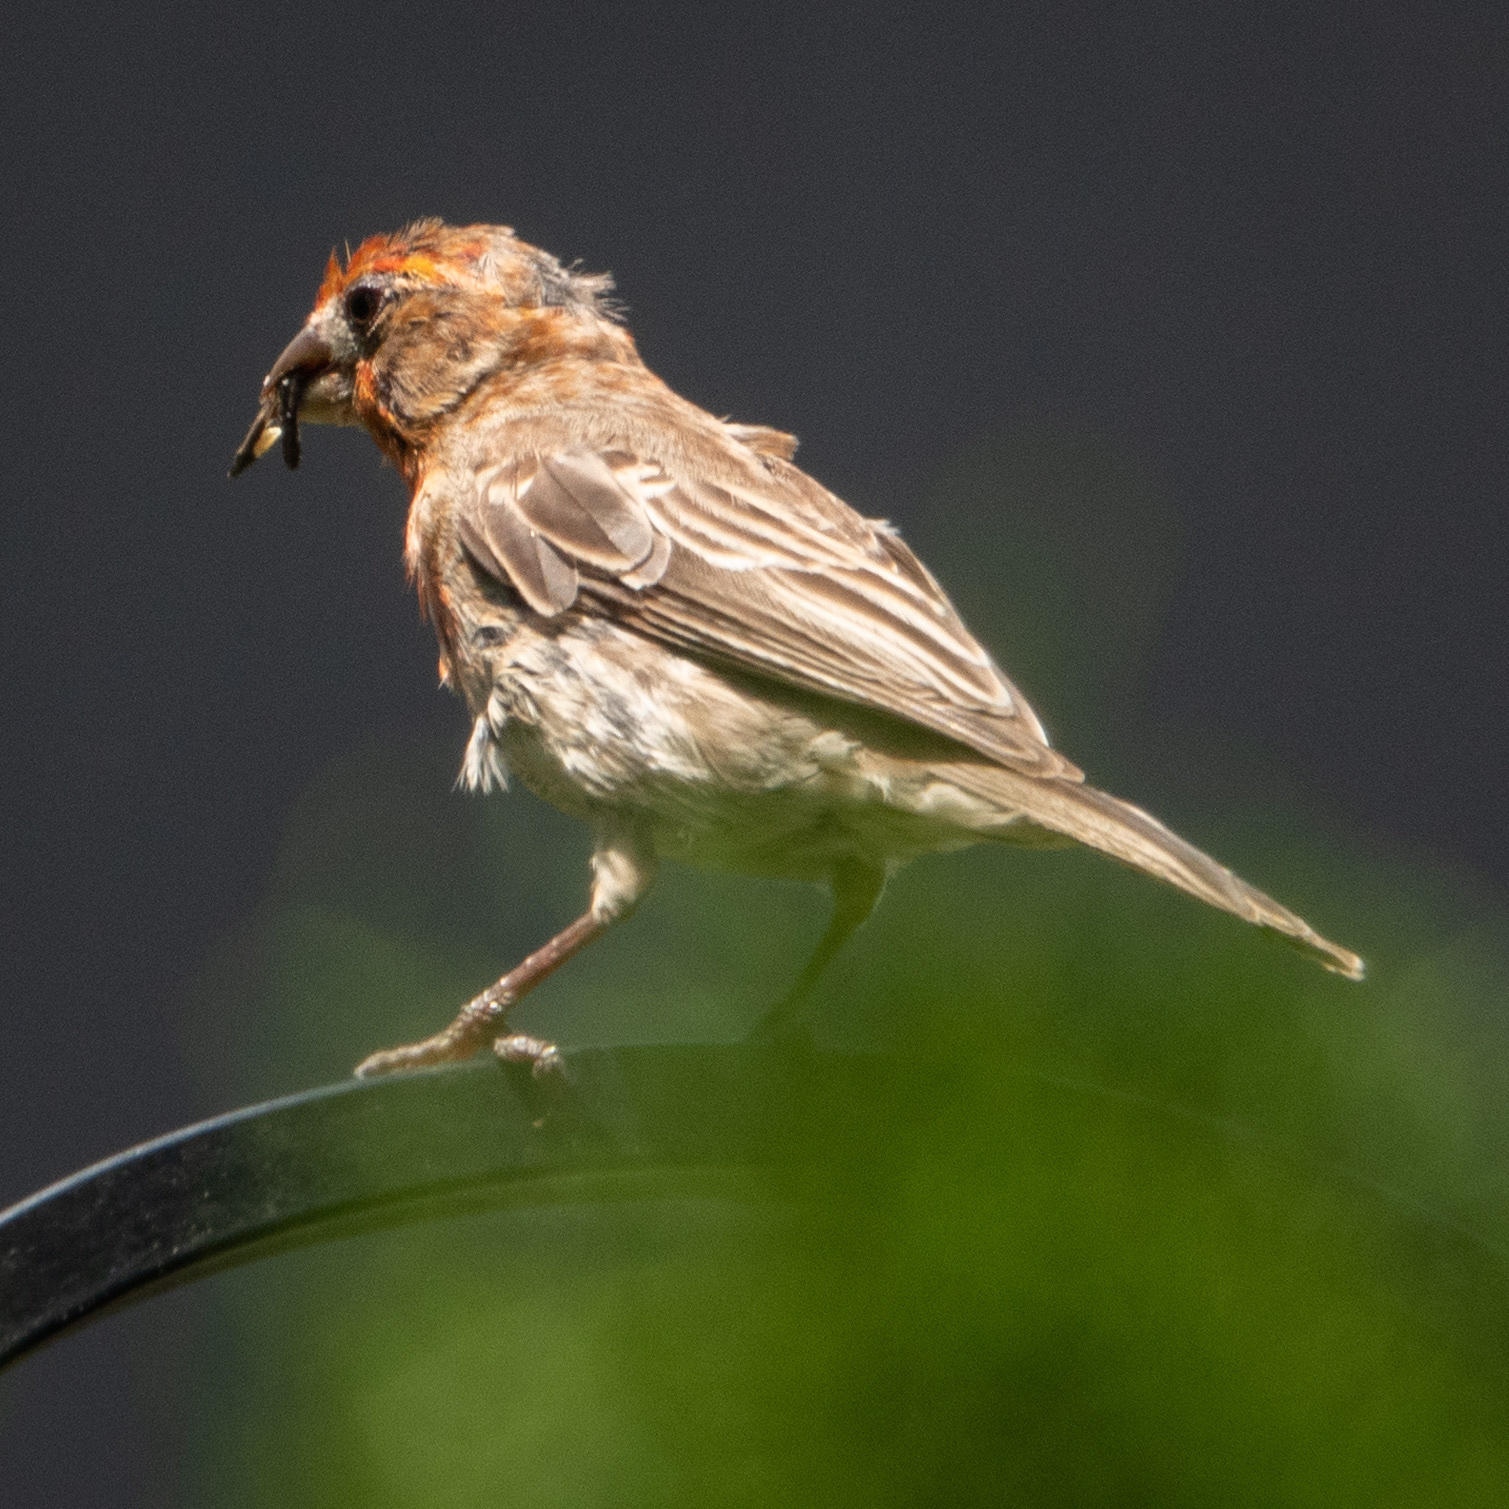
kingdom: Animalia
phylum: Chordata
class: Aves
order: Passeriformes
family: Fringillidae
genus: Haemorhous
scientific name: Haemorhous mexicanus
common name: House finch
